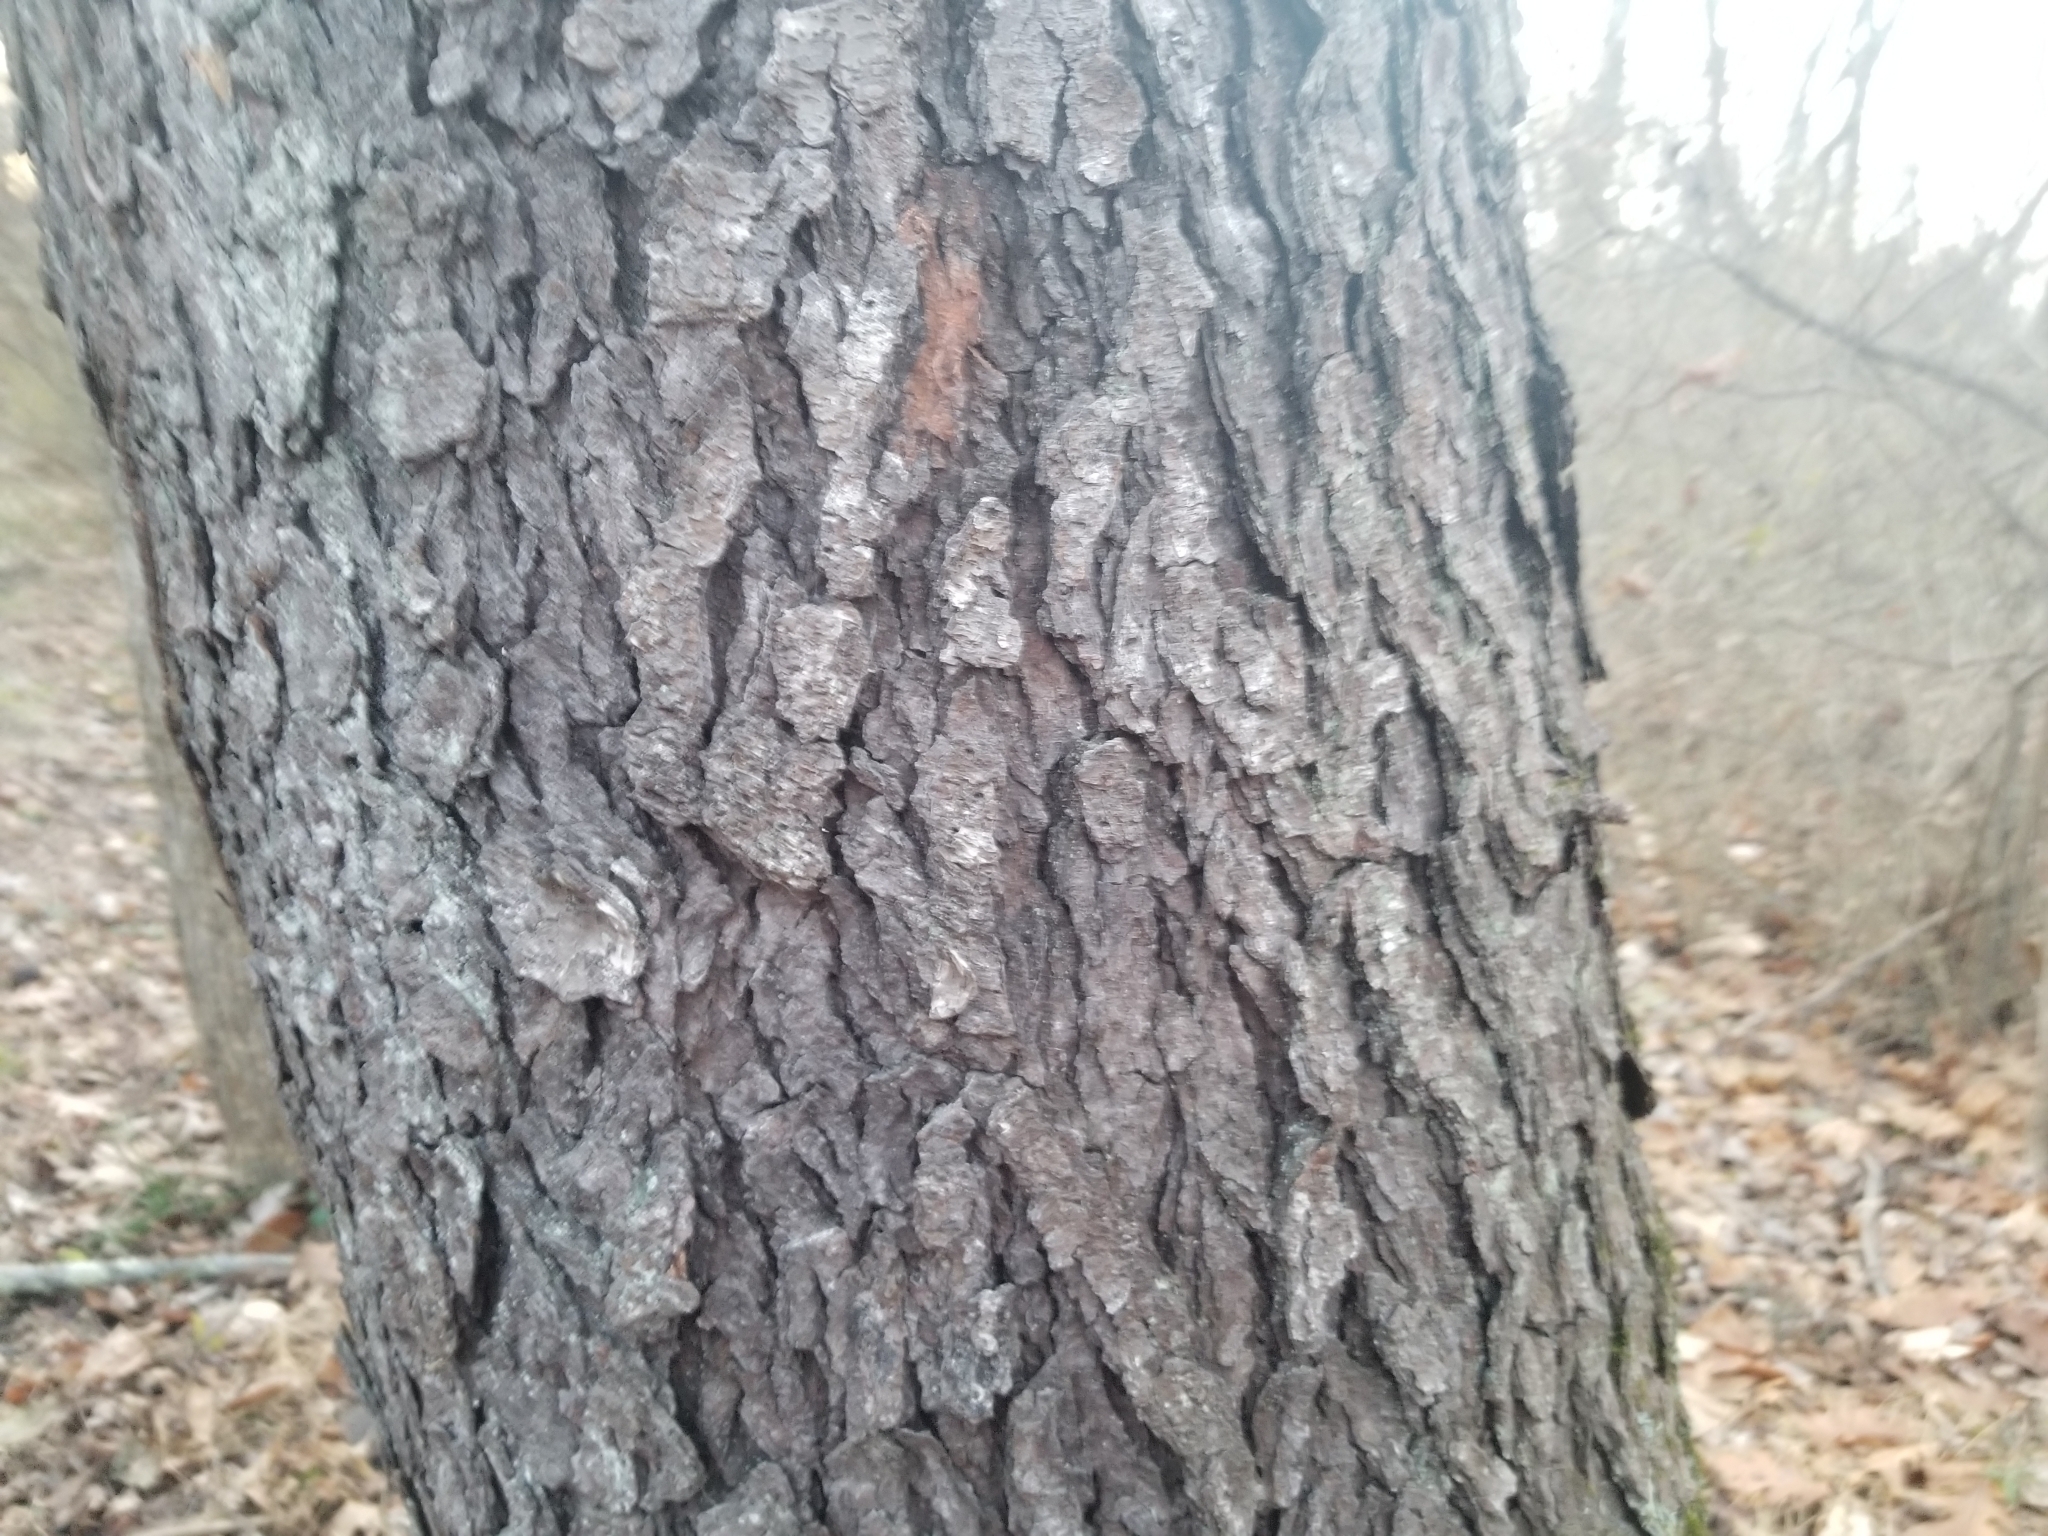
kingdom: Plantae
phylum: Tracheophyta
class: Magnoliopsida
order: Rosales
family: Rosaceae
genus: Prunus
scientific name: Prunus serotina
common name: Black cherry
